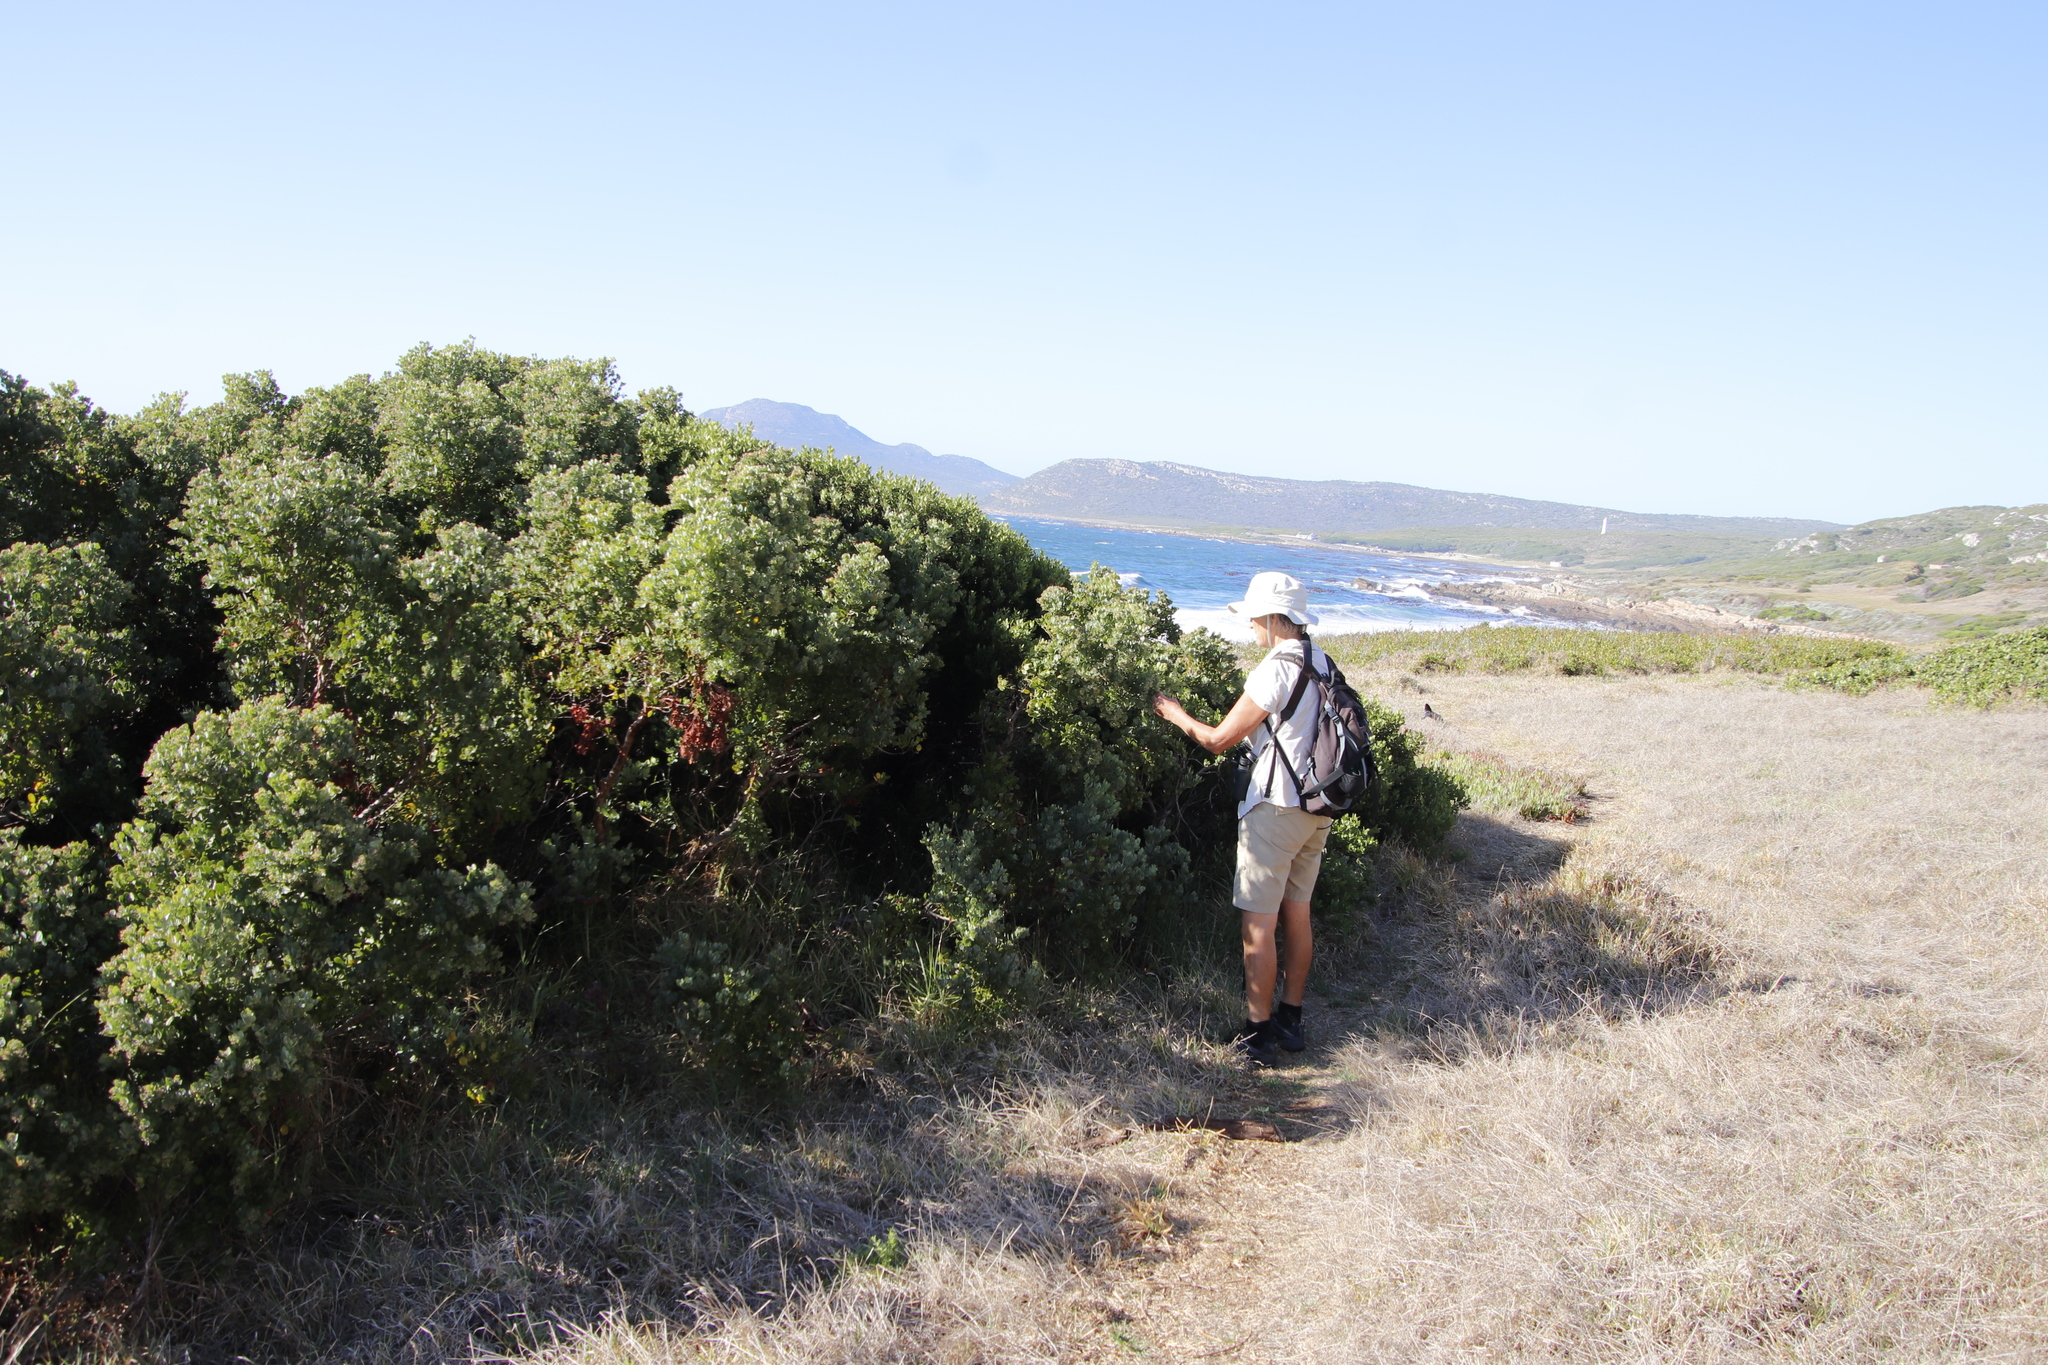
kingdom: Plantae
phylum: Tracheophyta
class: Magnoliopsida
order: Santalales
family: Santalaceae
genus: Osyris
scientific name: Osyris compressa
